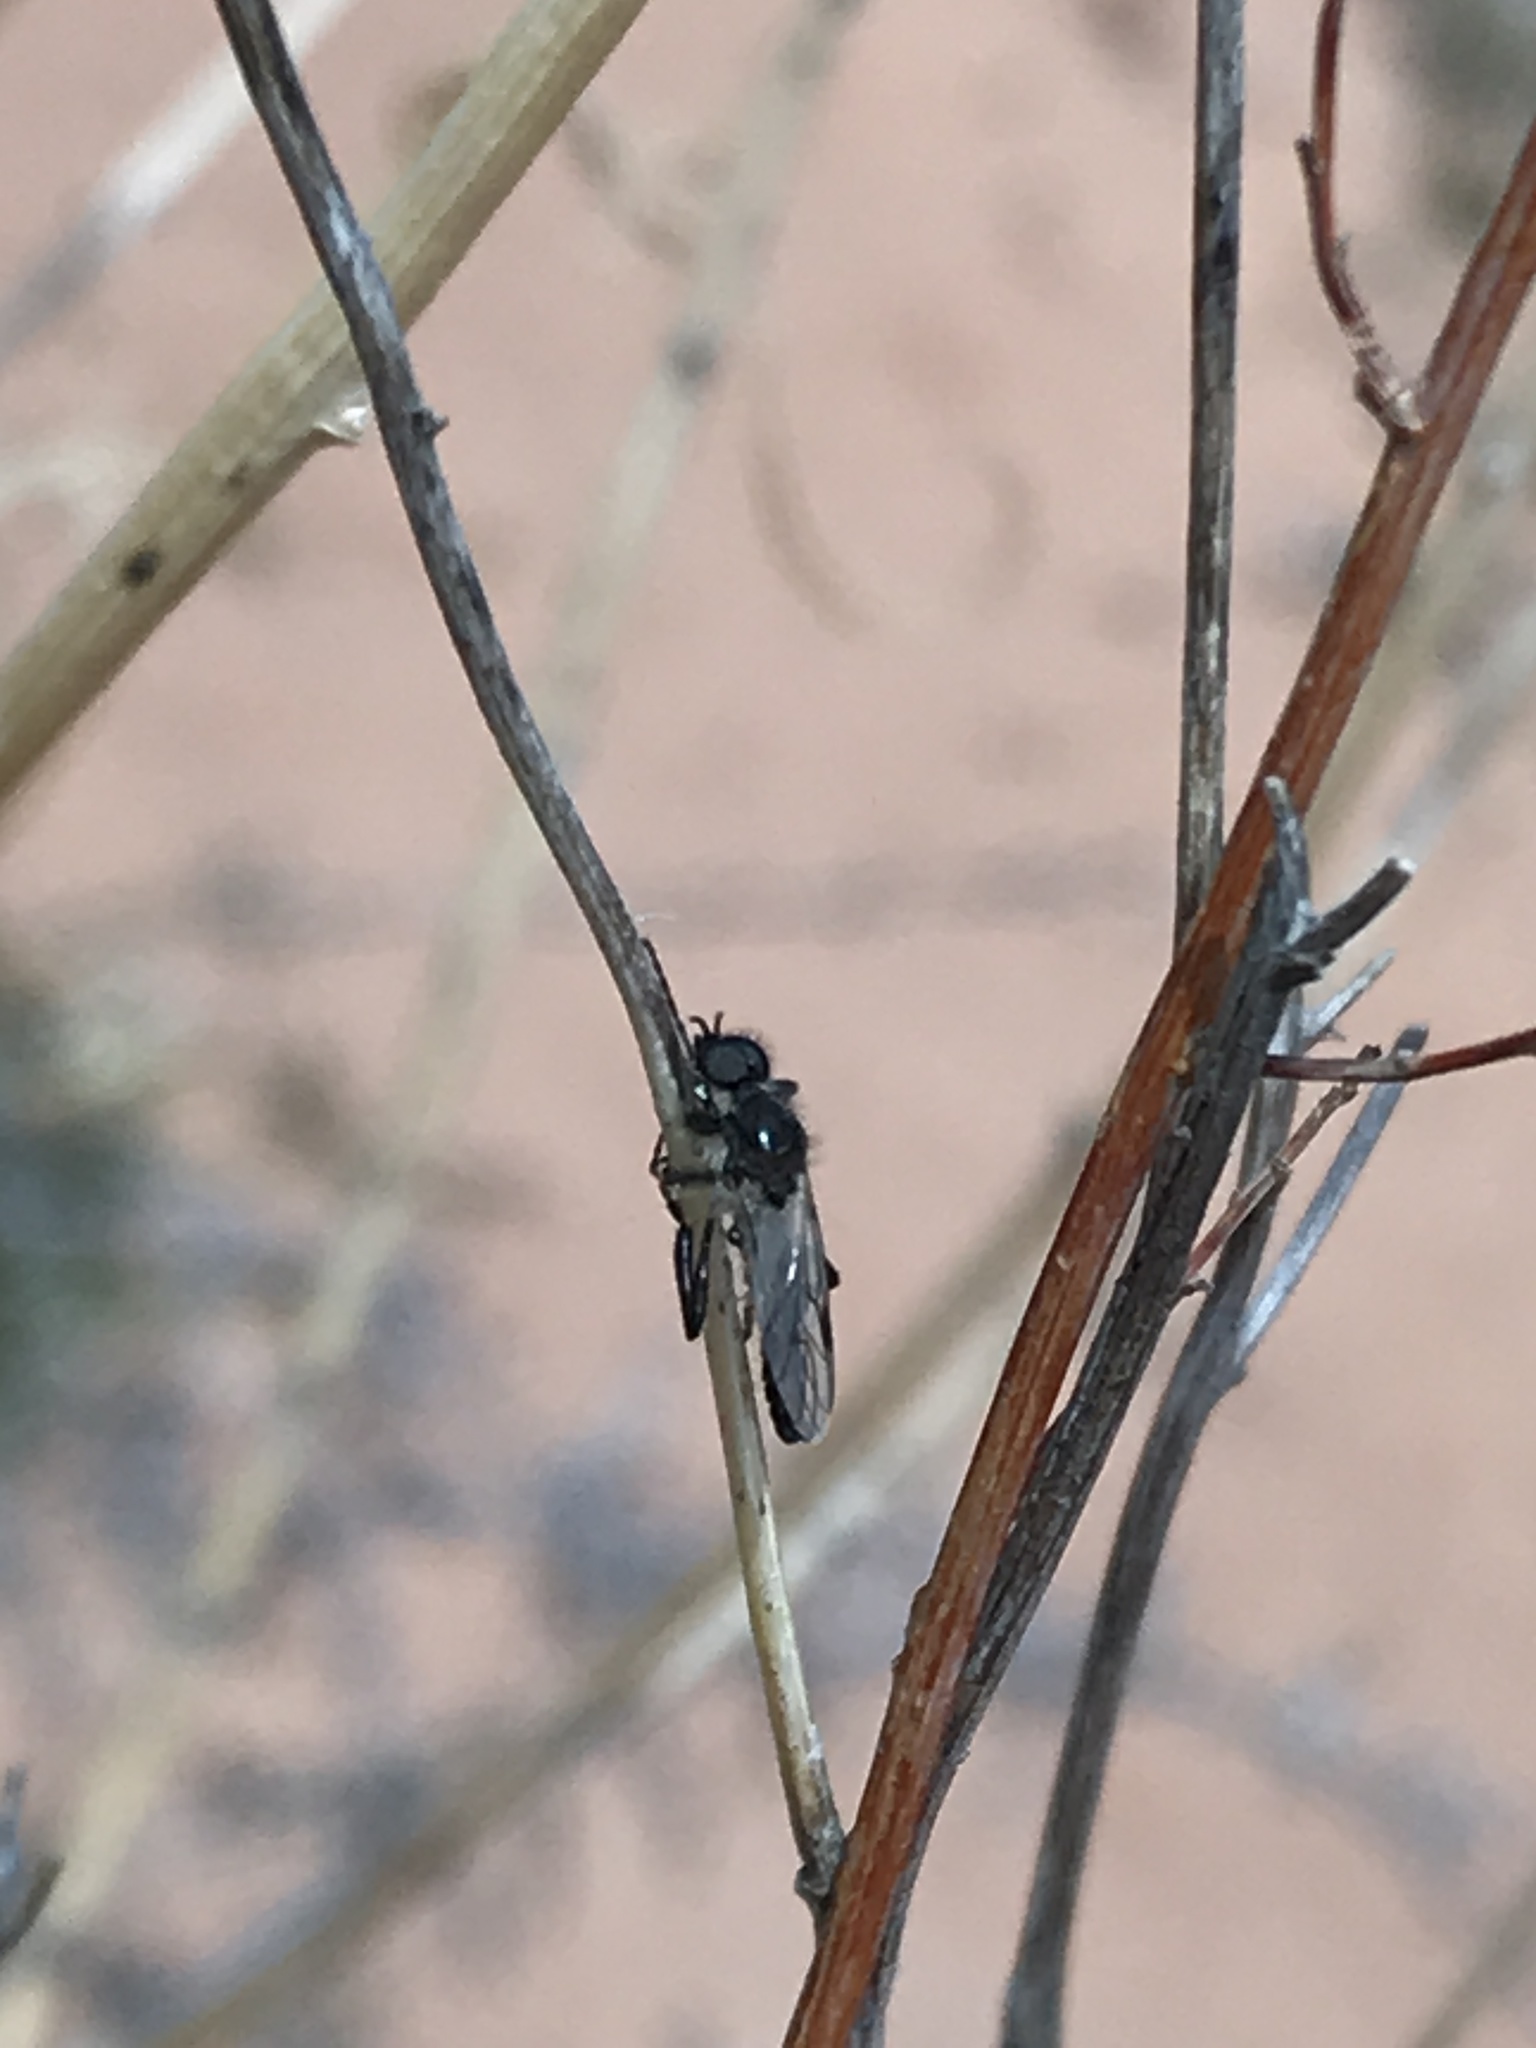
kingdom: Animalia
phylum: Arthropoda
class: Insecta
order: Diptera
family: Bibionidae
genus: Bibio
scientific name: Bibio
